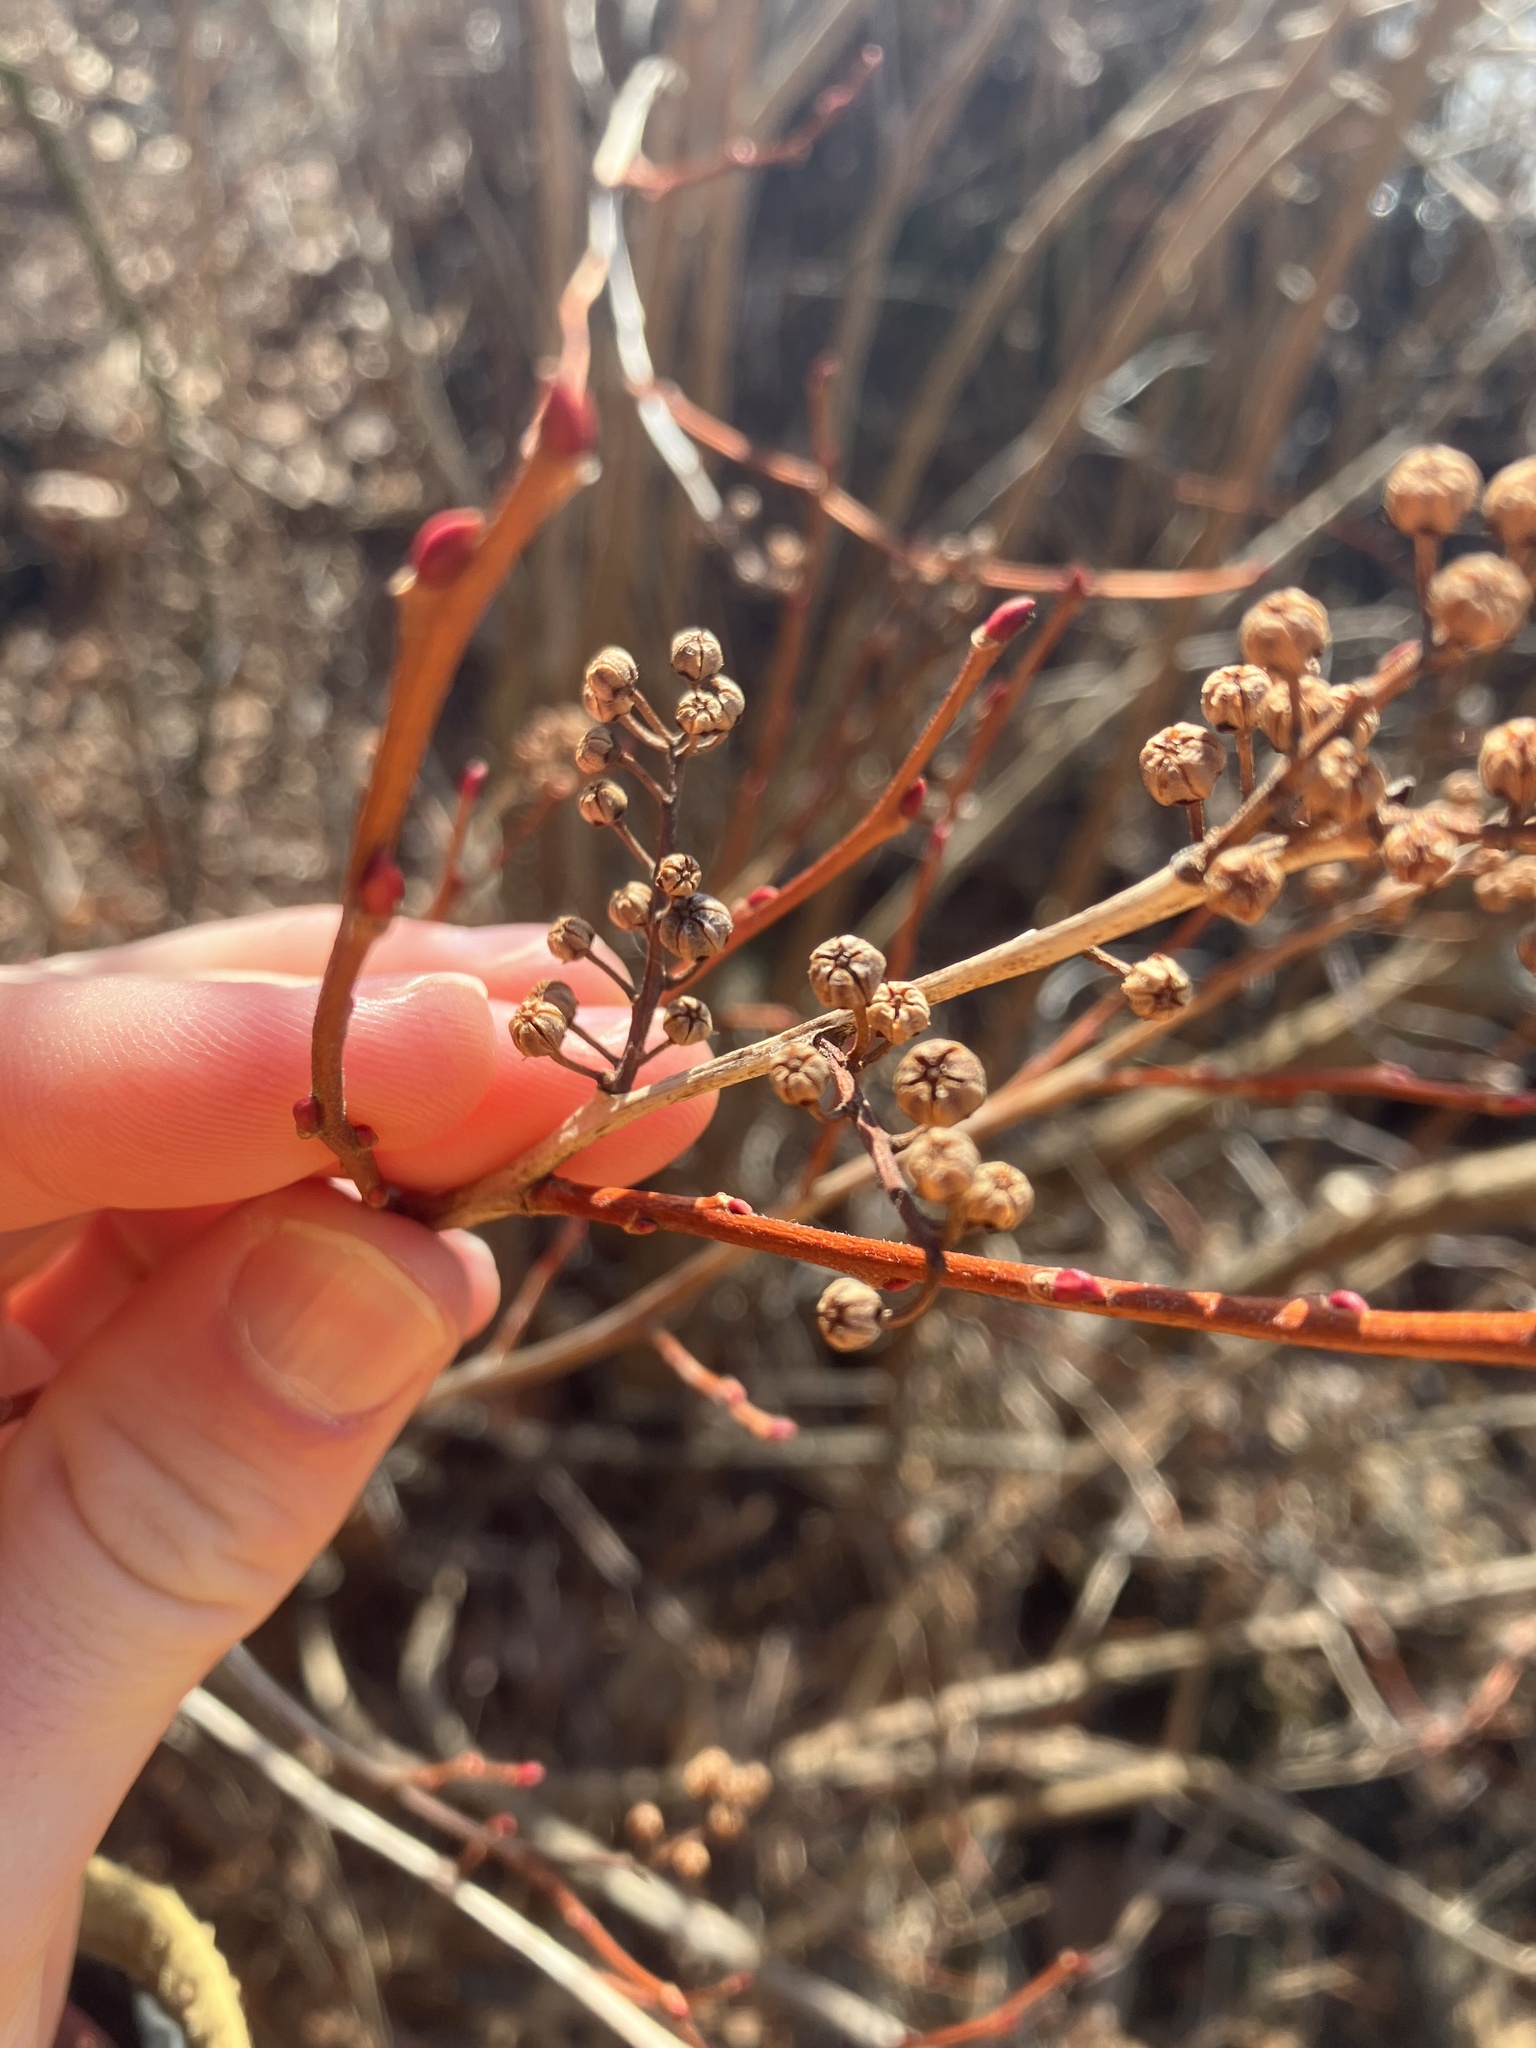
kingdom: Plantae
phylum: Tracheophyta
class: Magnoliopsida
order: Ericales
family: Ericaceae
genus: Lyonia
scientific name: Lyonia ligustrina
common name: Maleberry
